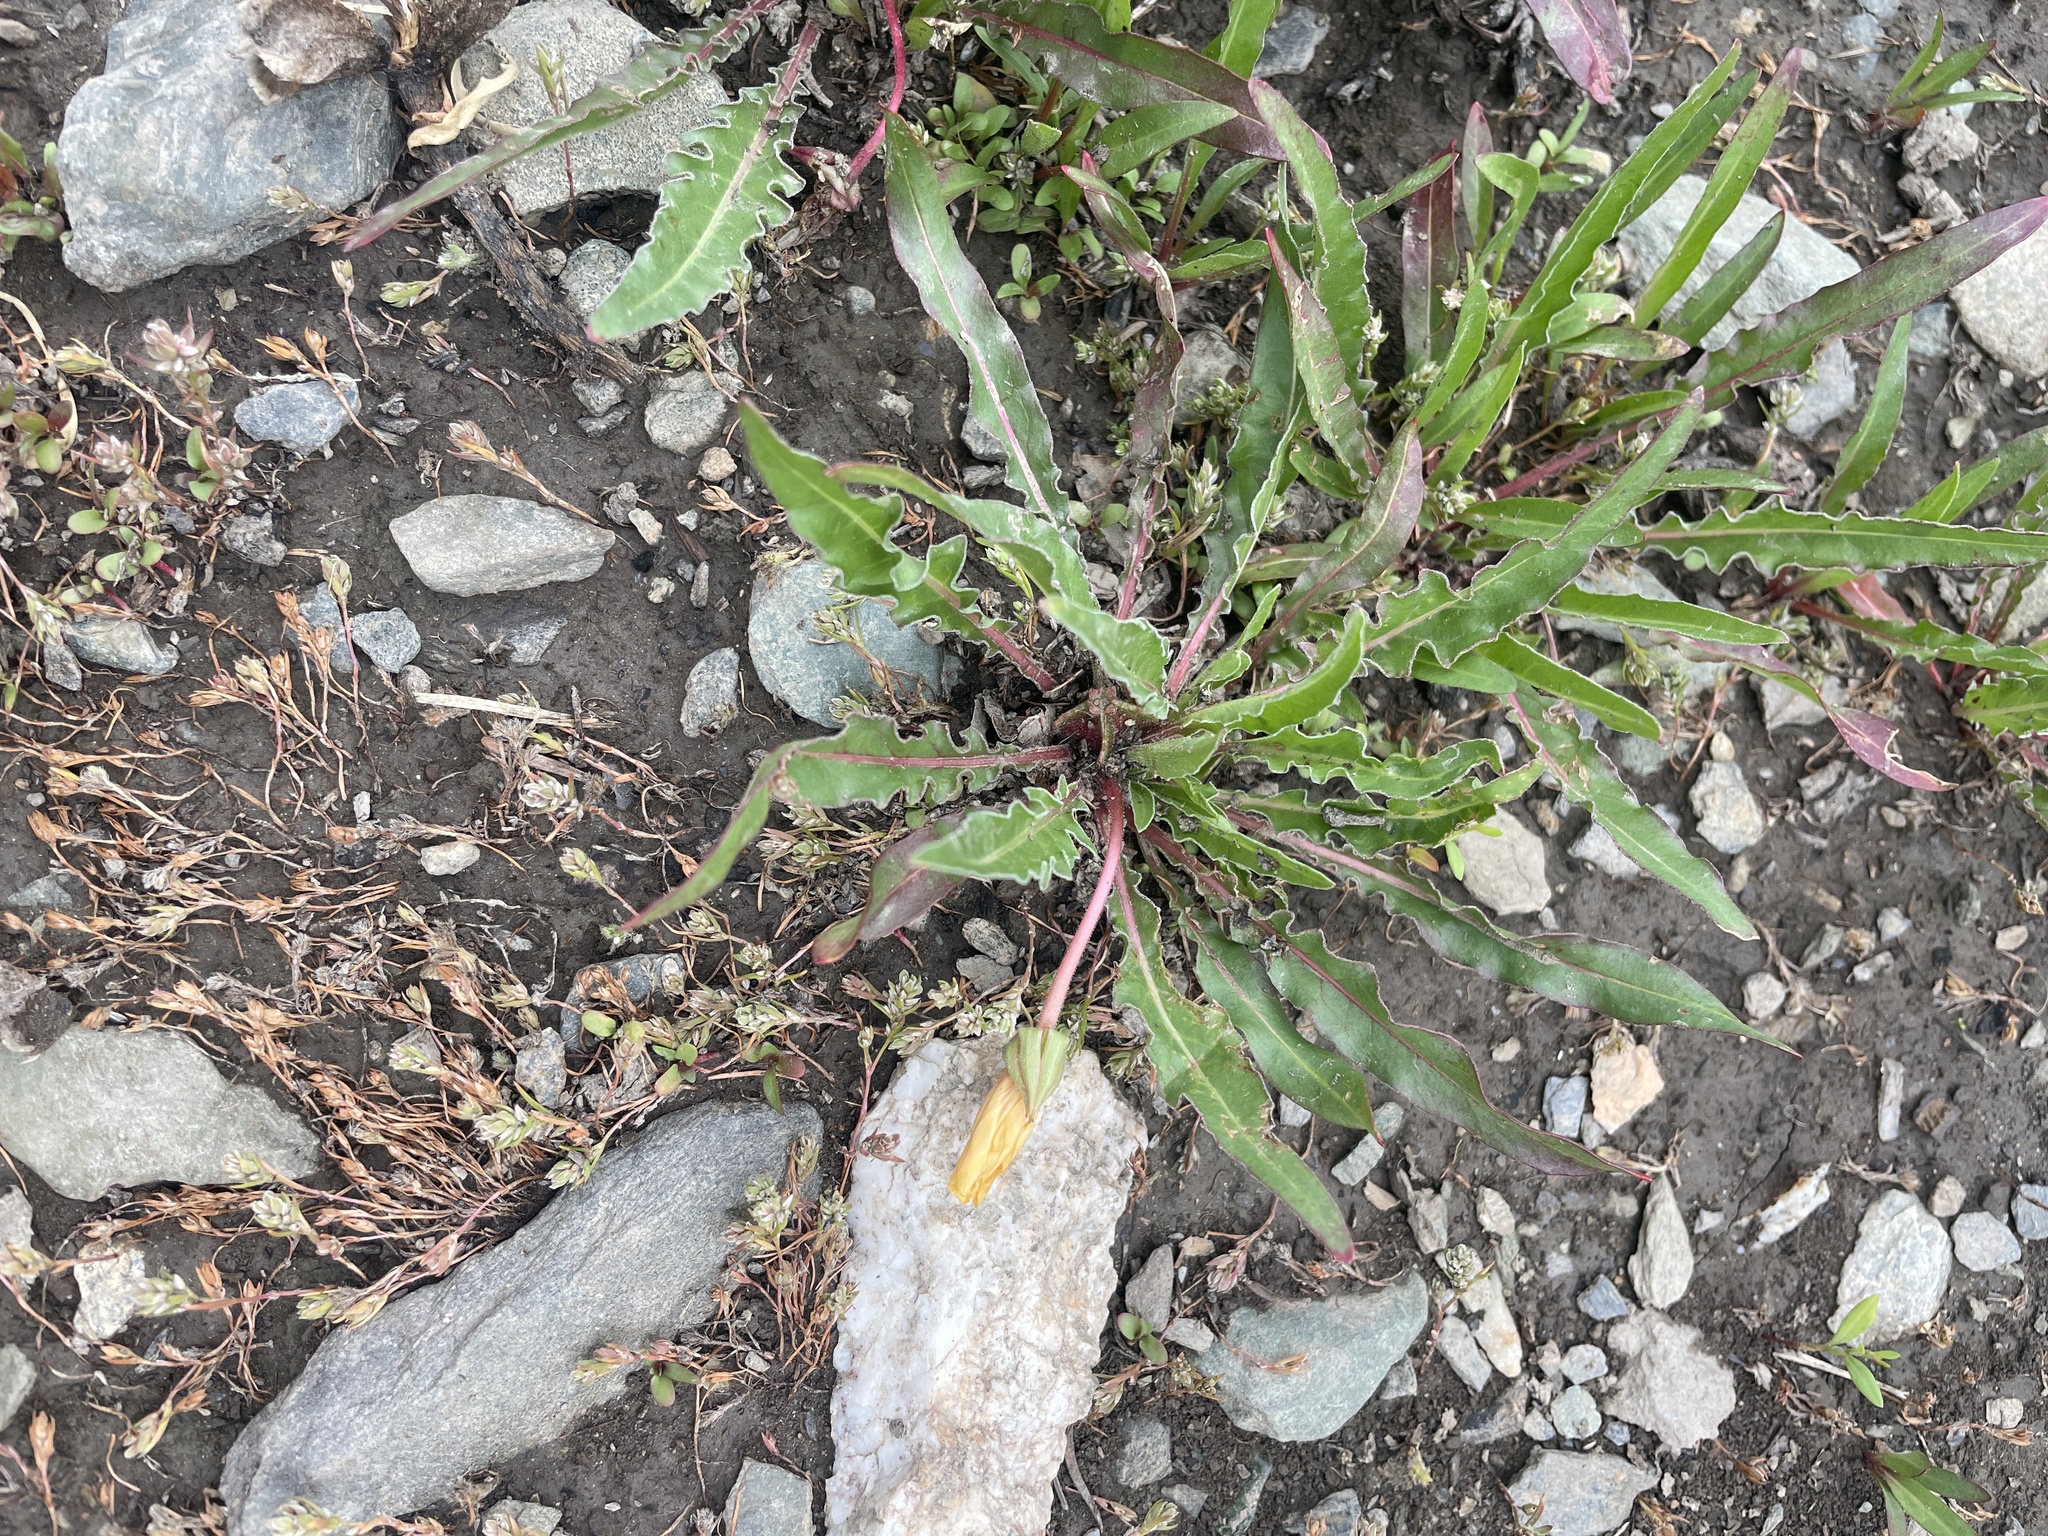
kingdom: Plantae
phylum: Tracheophyta
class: Magnoliopsida
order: Myrtales
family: Onagraceae
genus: Taraxia
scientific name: Taraxia subacaulis
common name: Diffuseflower evening primrose
